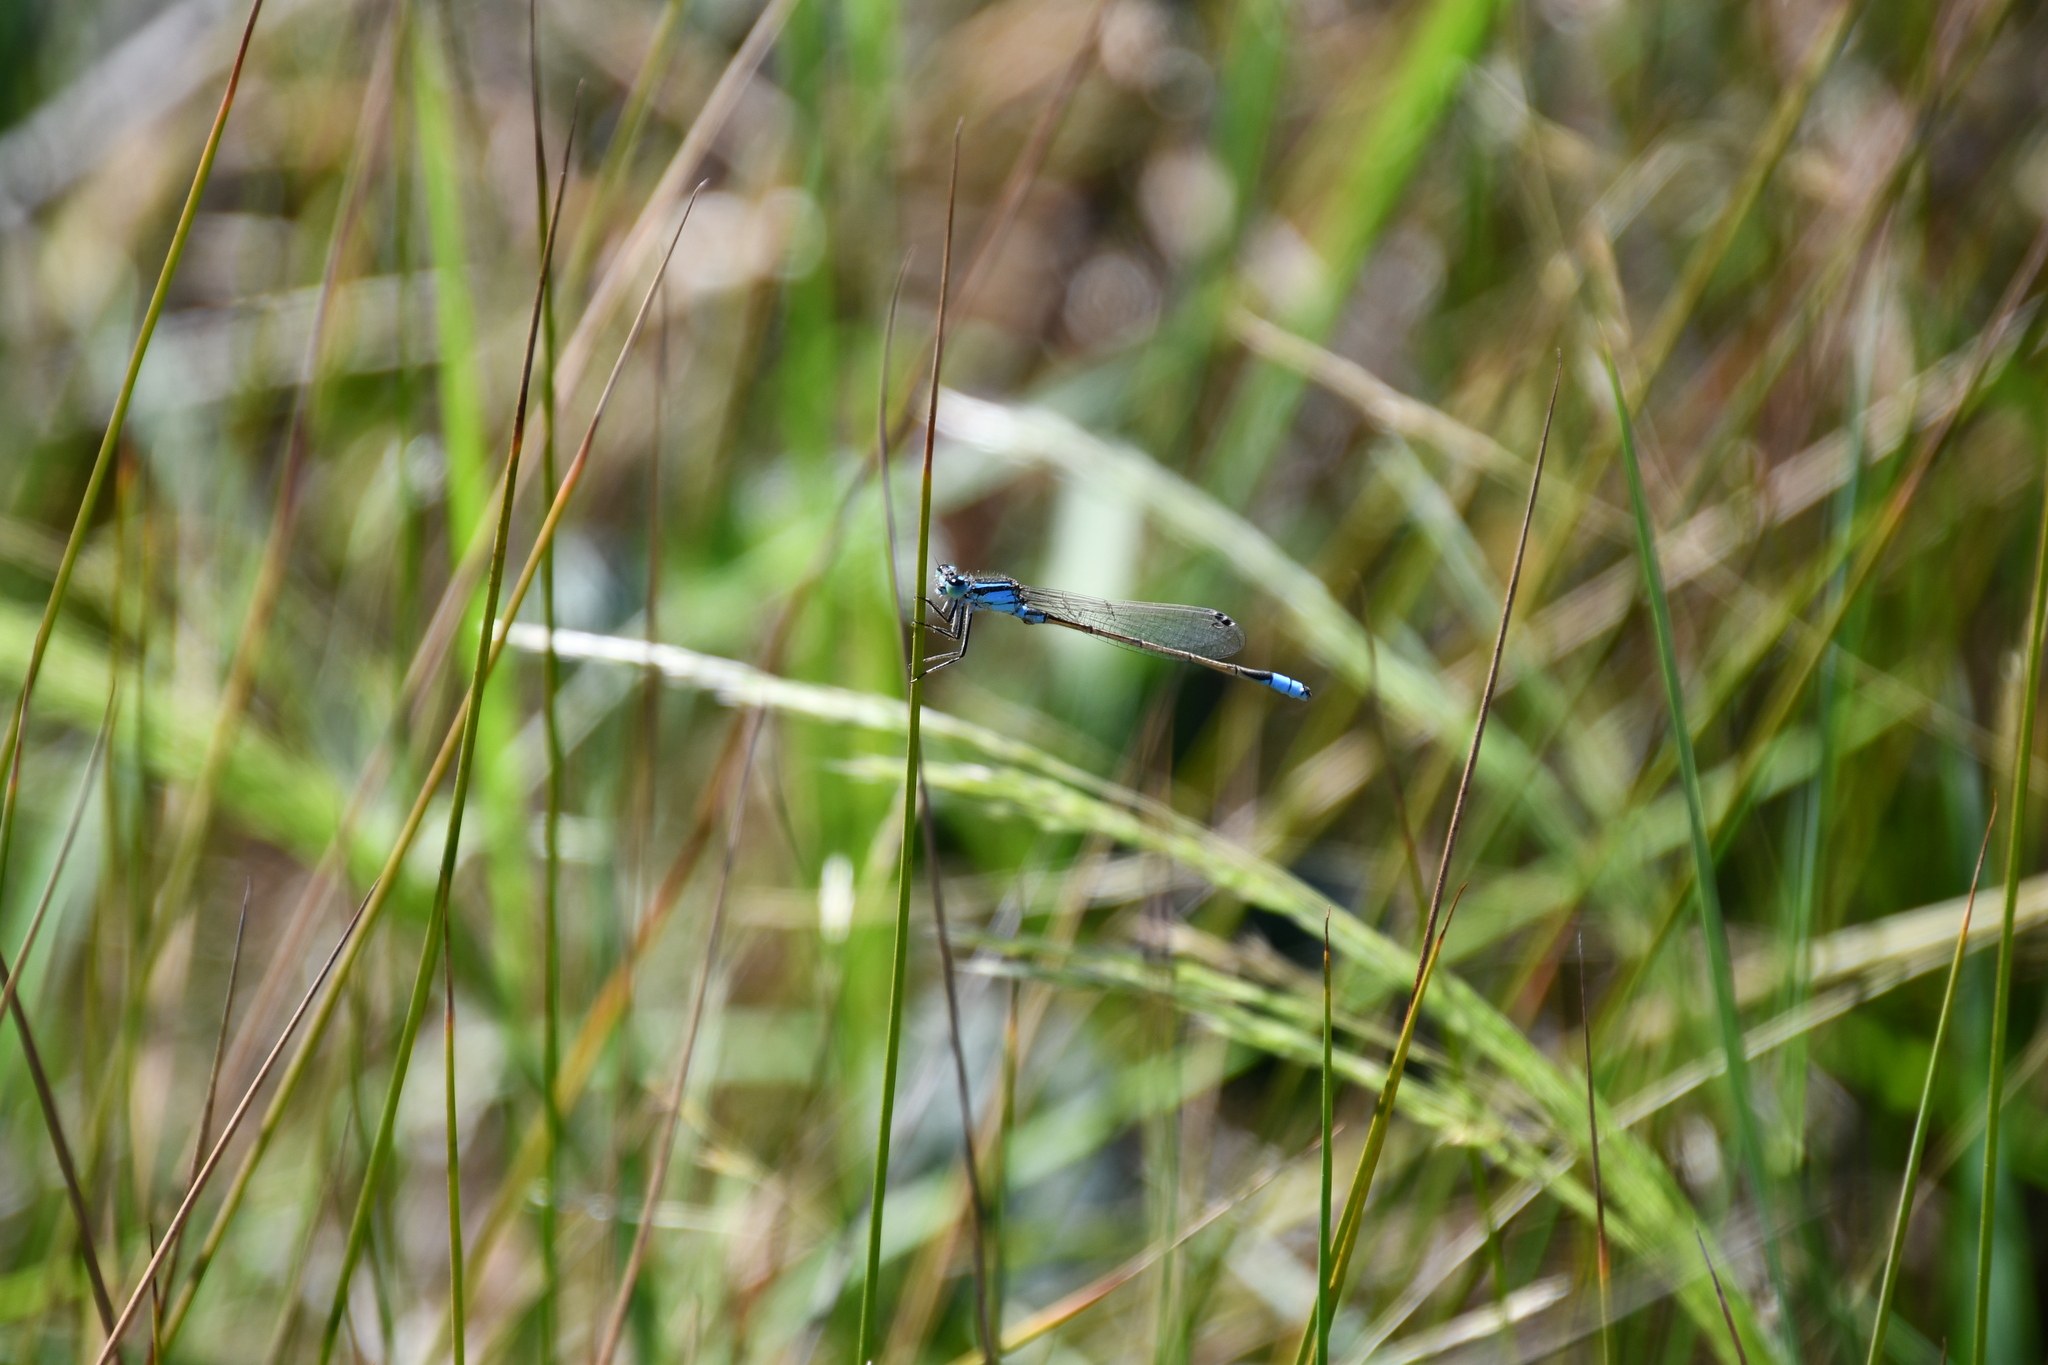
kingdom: Animalia
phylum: Arthropoda
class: Insecta
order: Odonata
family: Coenagrionidae
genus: Ischnura
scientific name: Ischnura heterosticta
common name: Common bluetail
